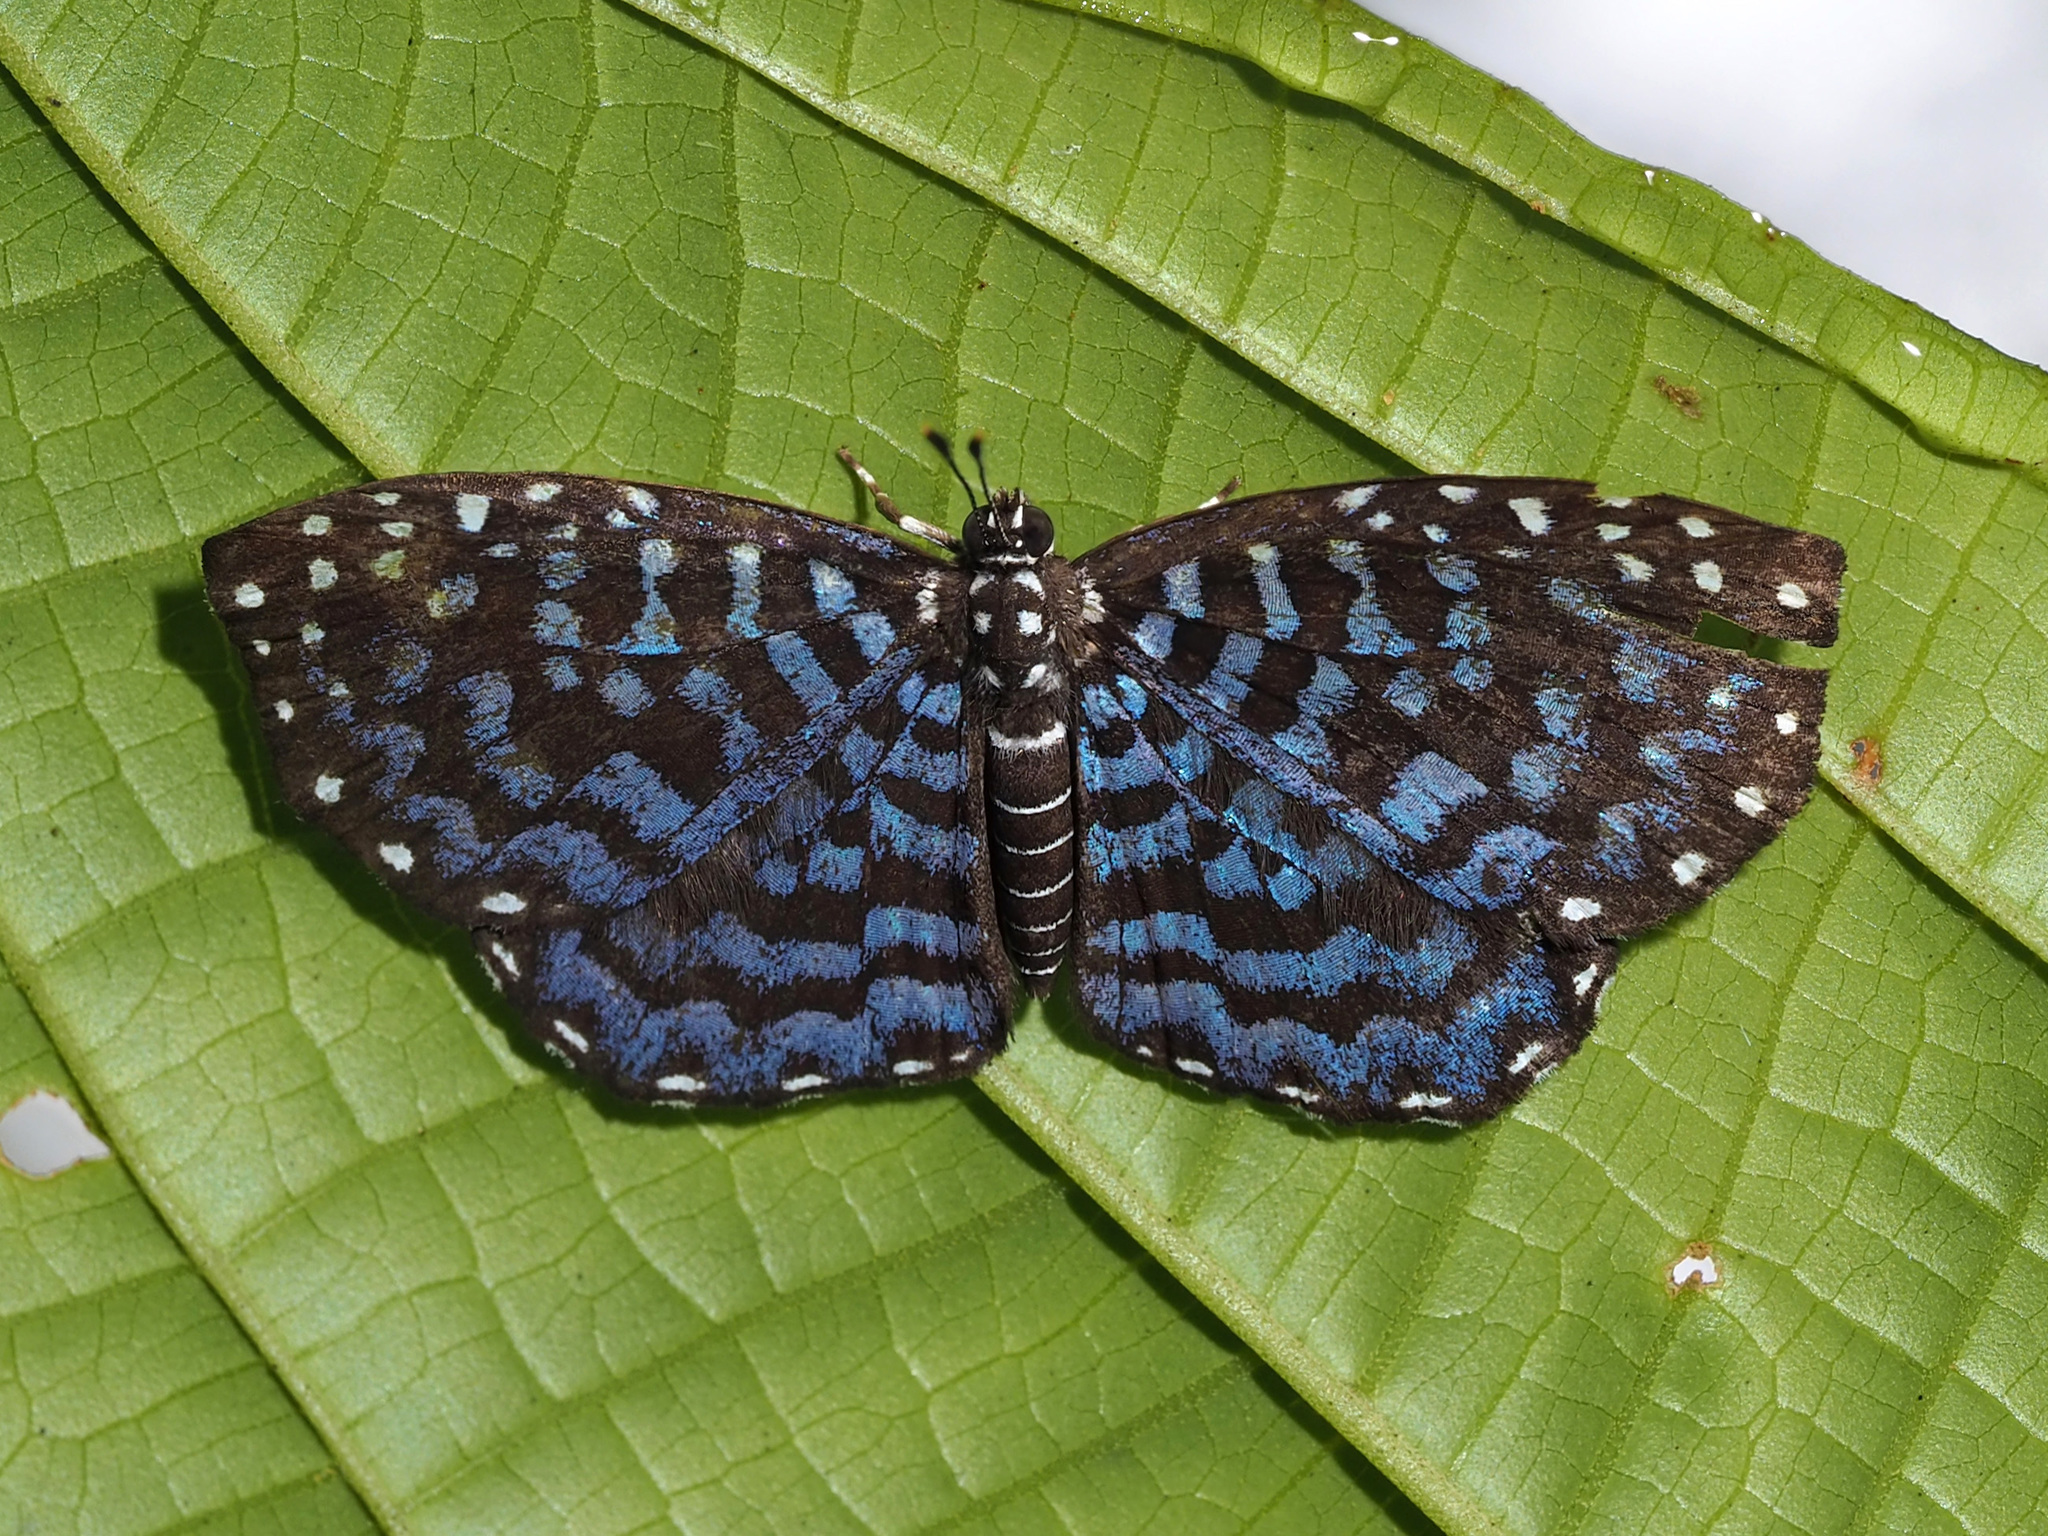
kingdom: Animalia
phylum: Arthropoda
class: Insecta
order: Diptera
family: Ephydridae
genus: Napaea
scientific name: Napaea
